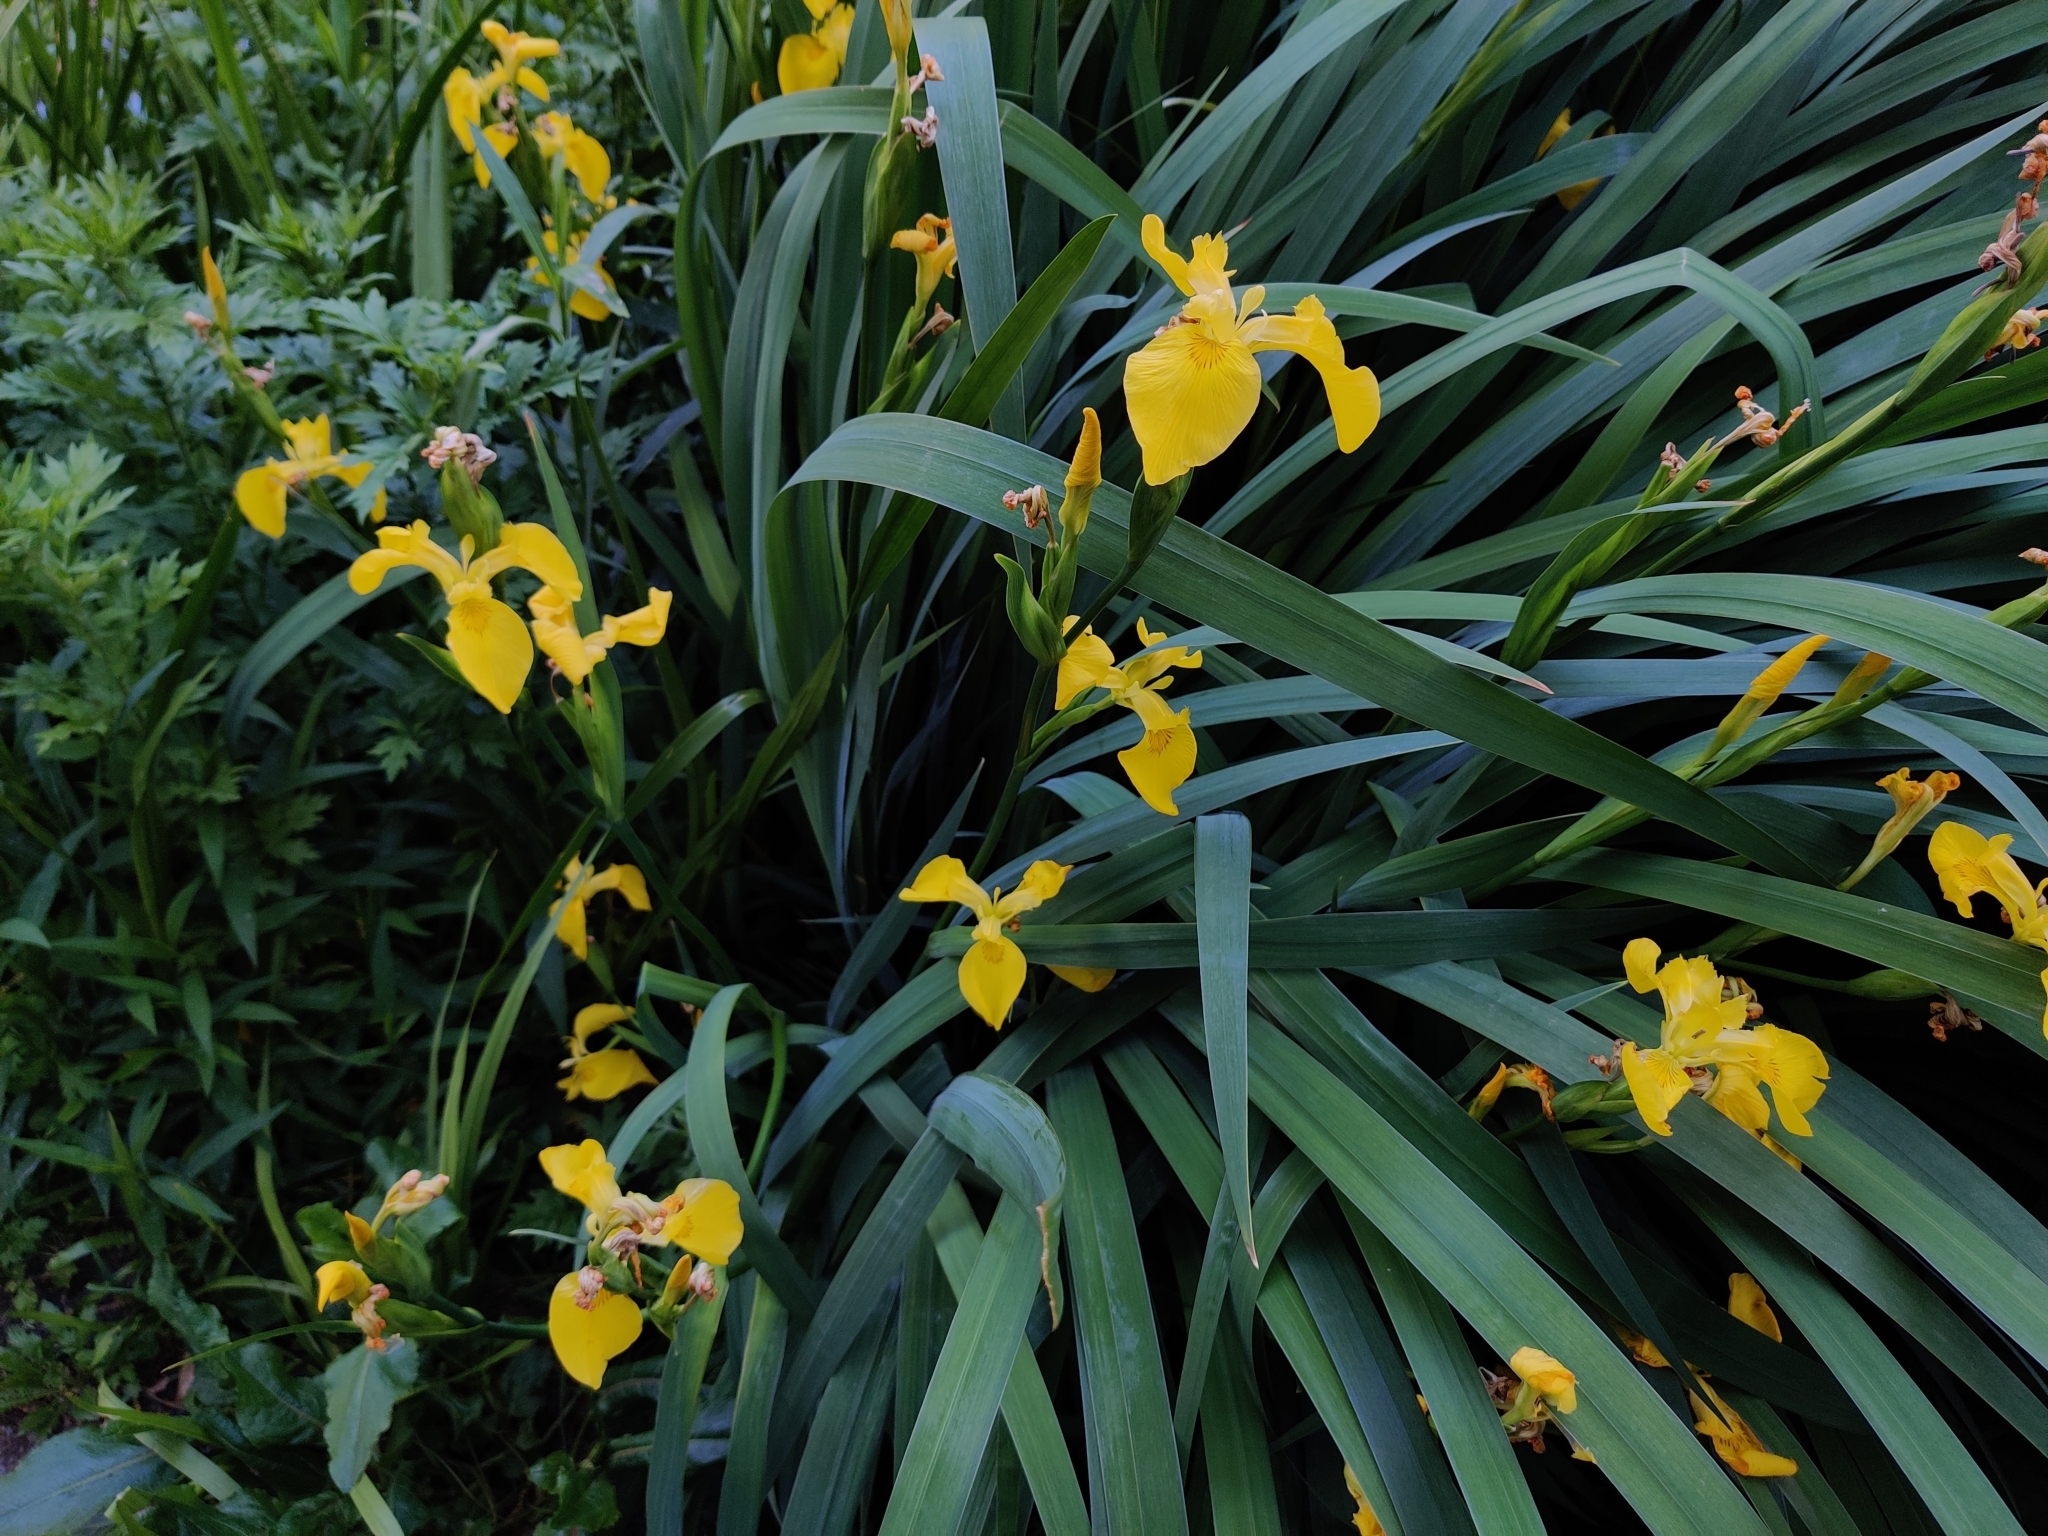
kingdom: Plantae
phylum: Tracheophyta
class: Liliopsida
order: Asparagales
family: Iridaceae
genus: Iris
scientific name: Iris pseudacorus
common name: Yellow flag
